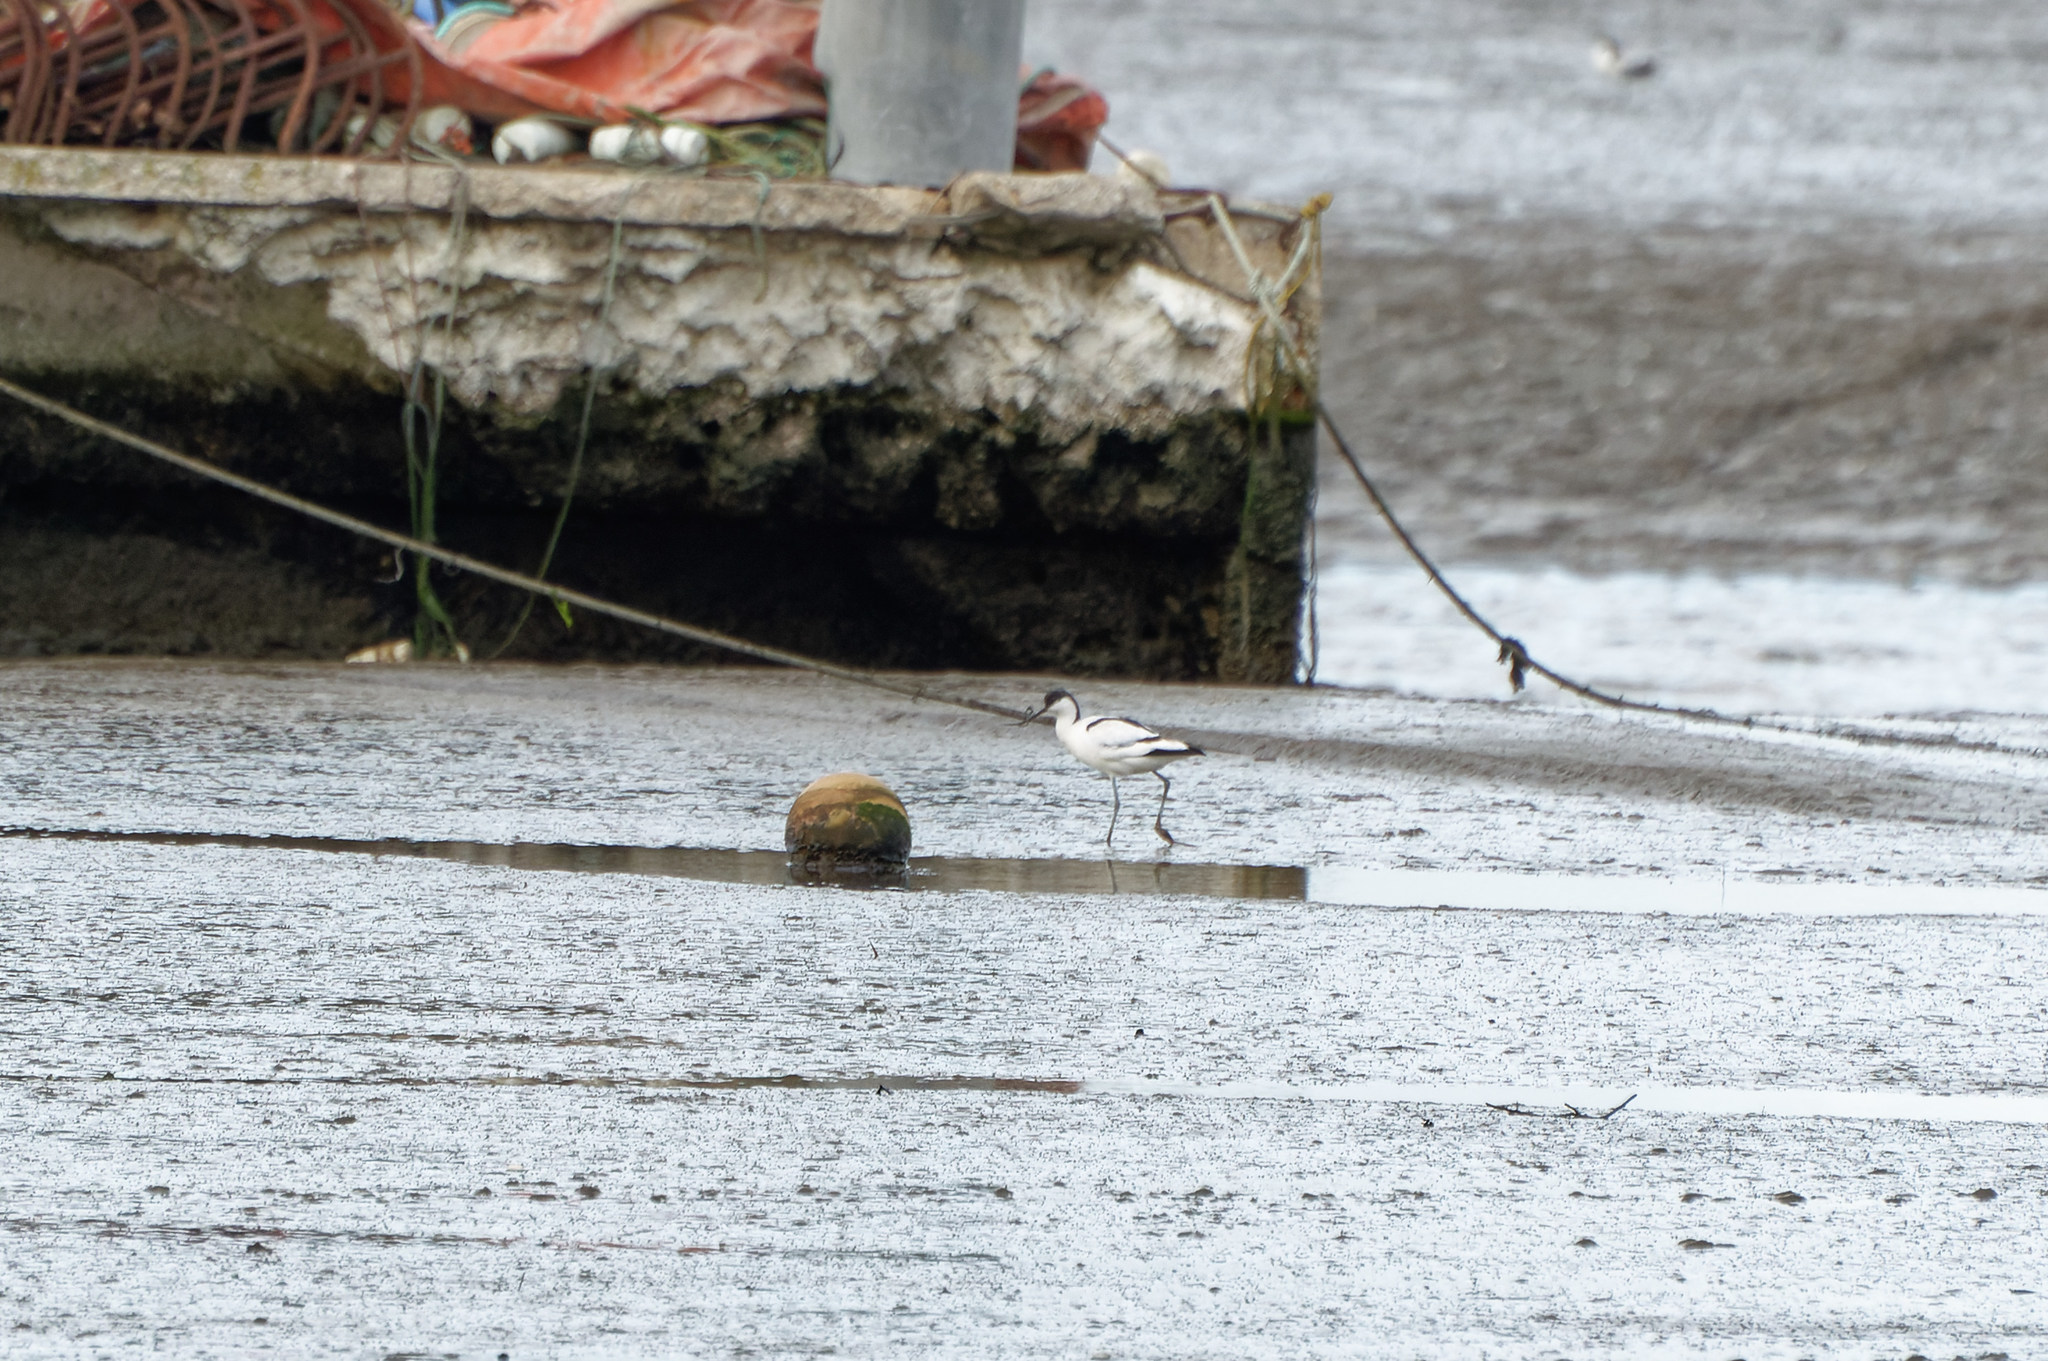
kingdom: Animalia
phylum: Chordata
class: Aves
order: Charadriiformes
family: Recurvirostridae
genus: Recurvirostra
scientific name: Recurvirostra avosetta
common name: Pied avocet
